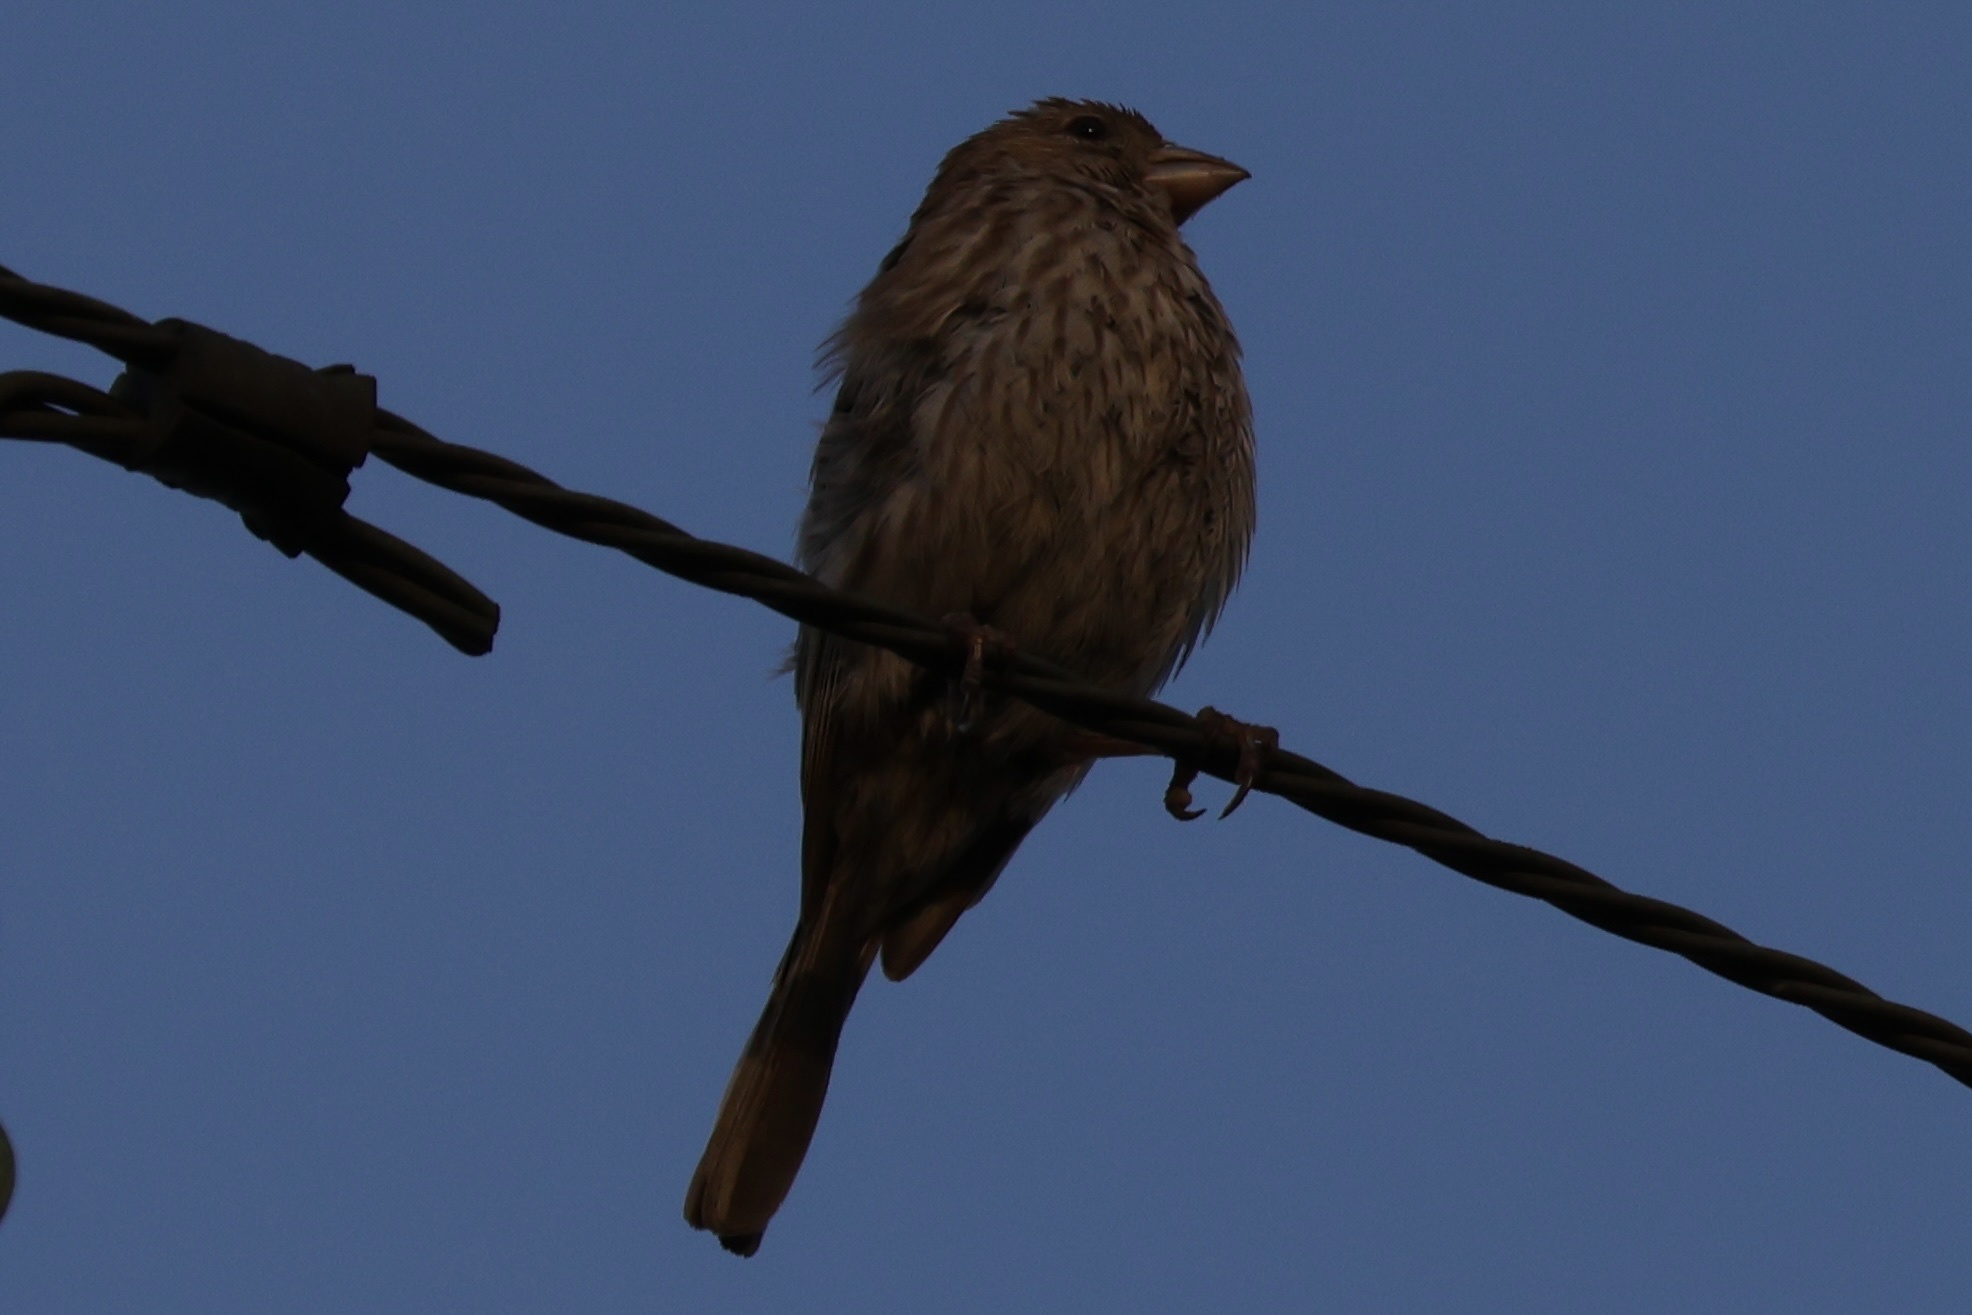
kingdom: Animalia
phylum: Chordata
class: Aves
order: Passeriformes
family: Fringillidae
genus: Haemorhous
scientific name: Haemorhous mexicanus
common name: House finch
